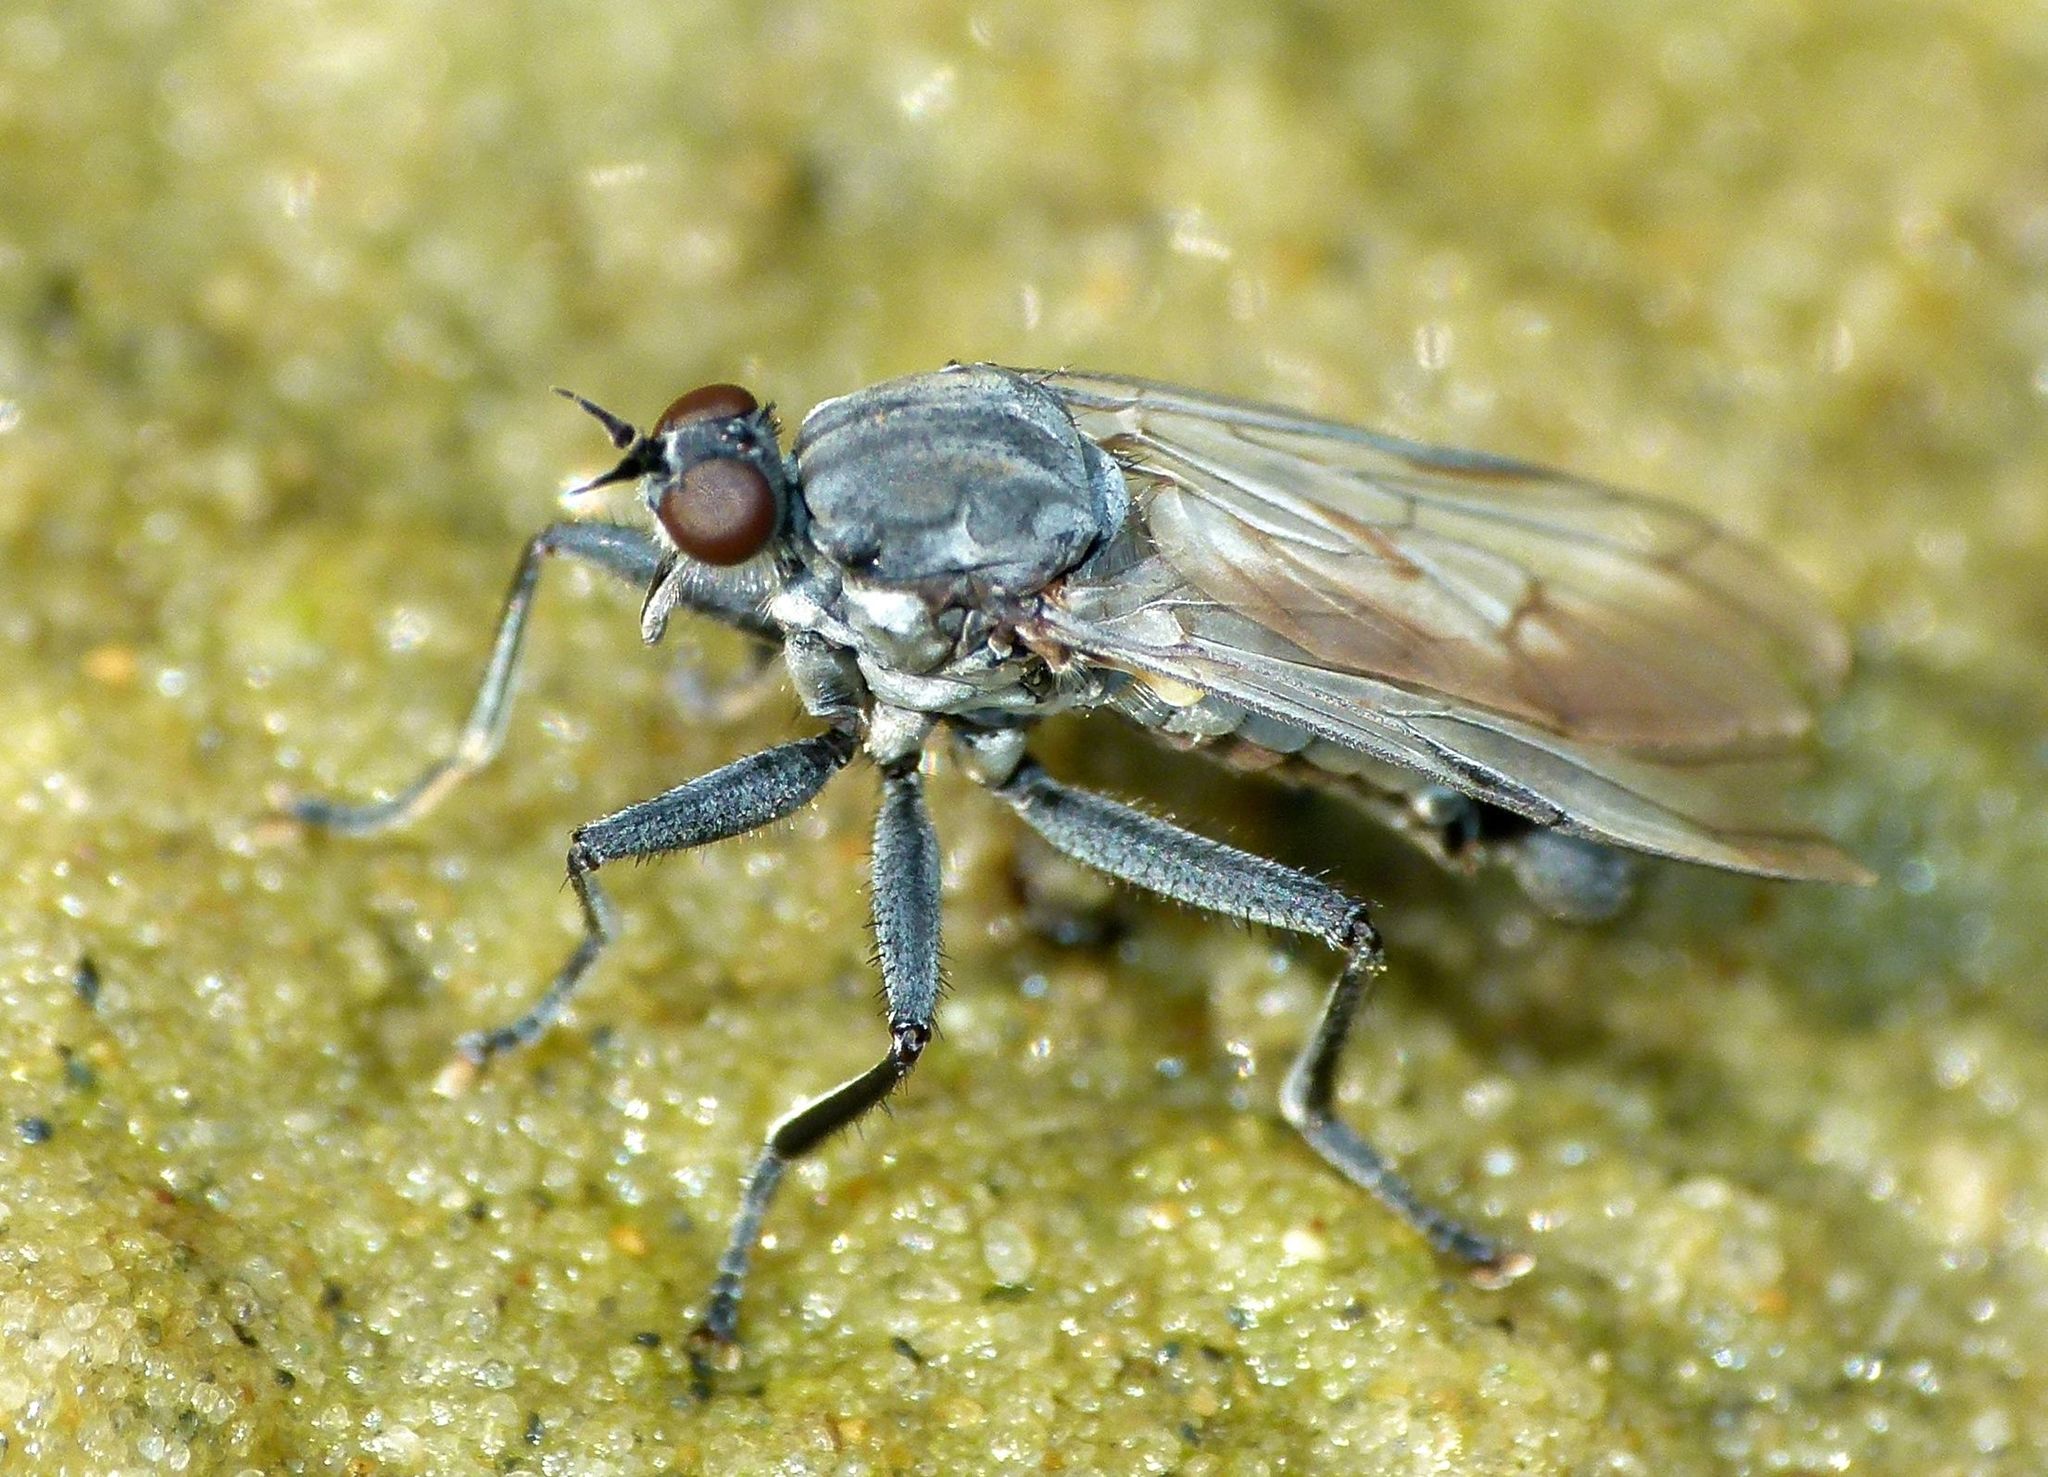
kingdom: Animalia
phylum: Arthropoda
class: Insecta
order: Diptera
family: Empididae
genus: Thinempis
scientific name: Thinempis otakouensis
